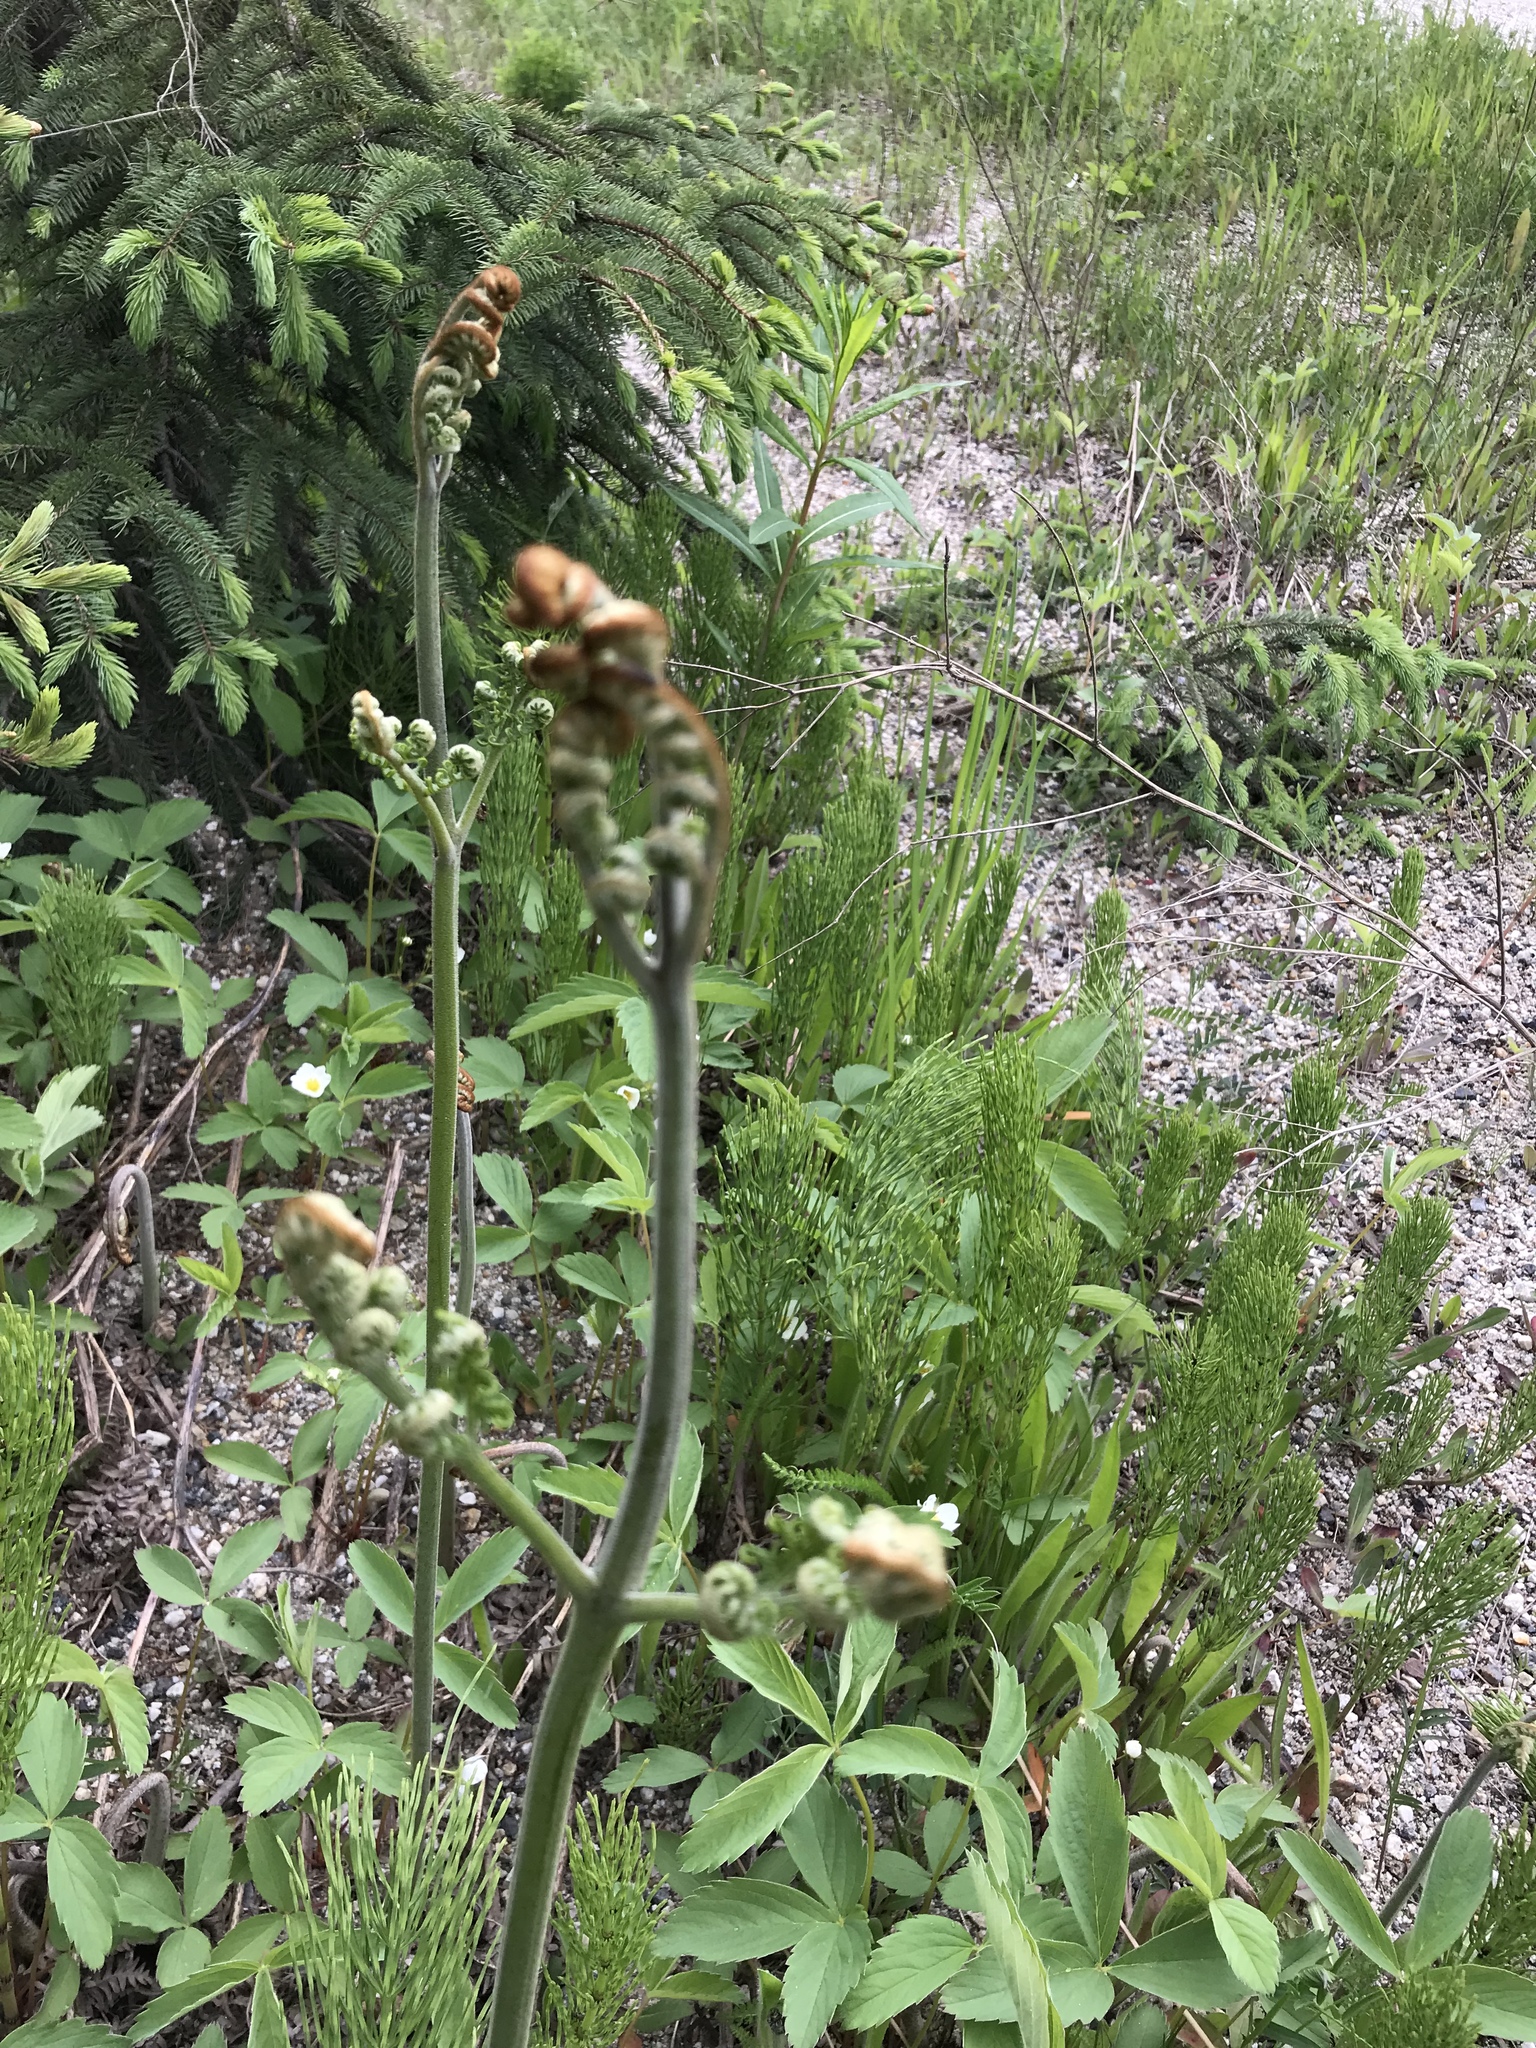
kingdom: Plantae
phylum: Tracheophyta
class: Polypodiopsida
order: Polypodiales
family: Dennstaedtiaceae
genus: Pteridium
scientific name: Pteridium aquilinum
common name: Bracken
